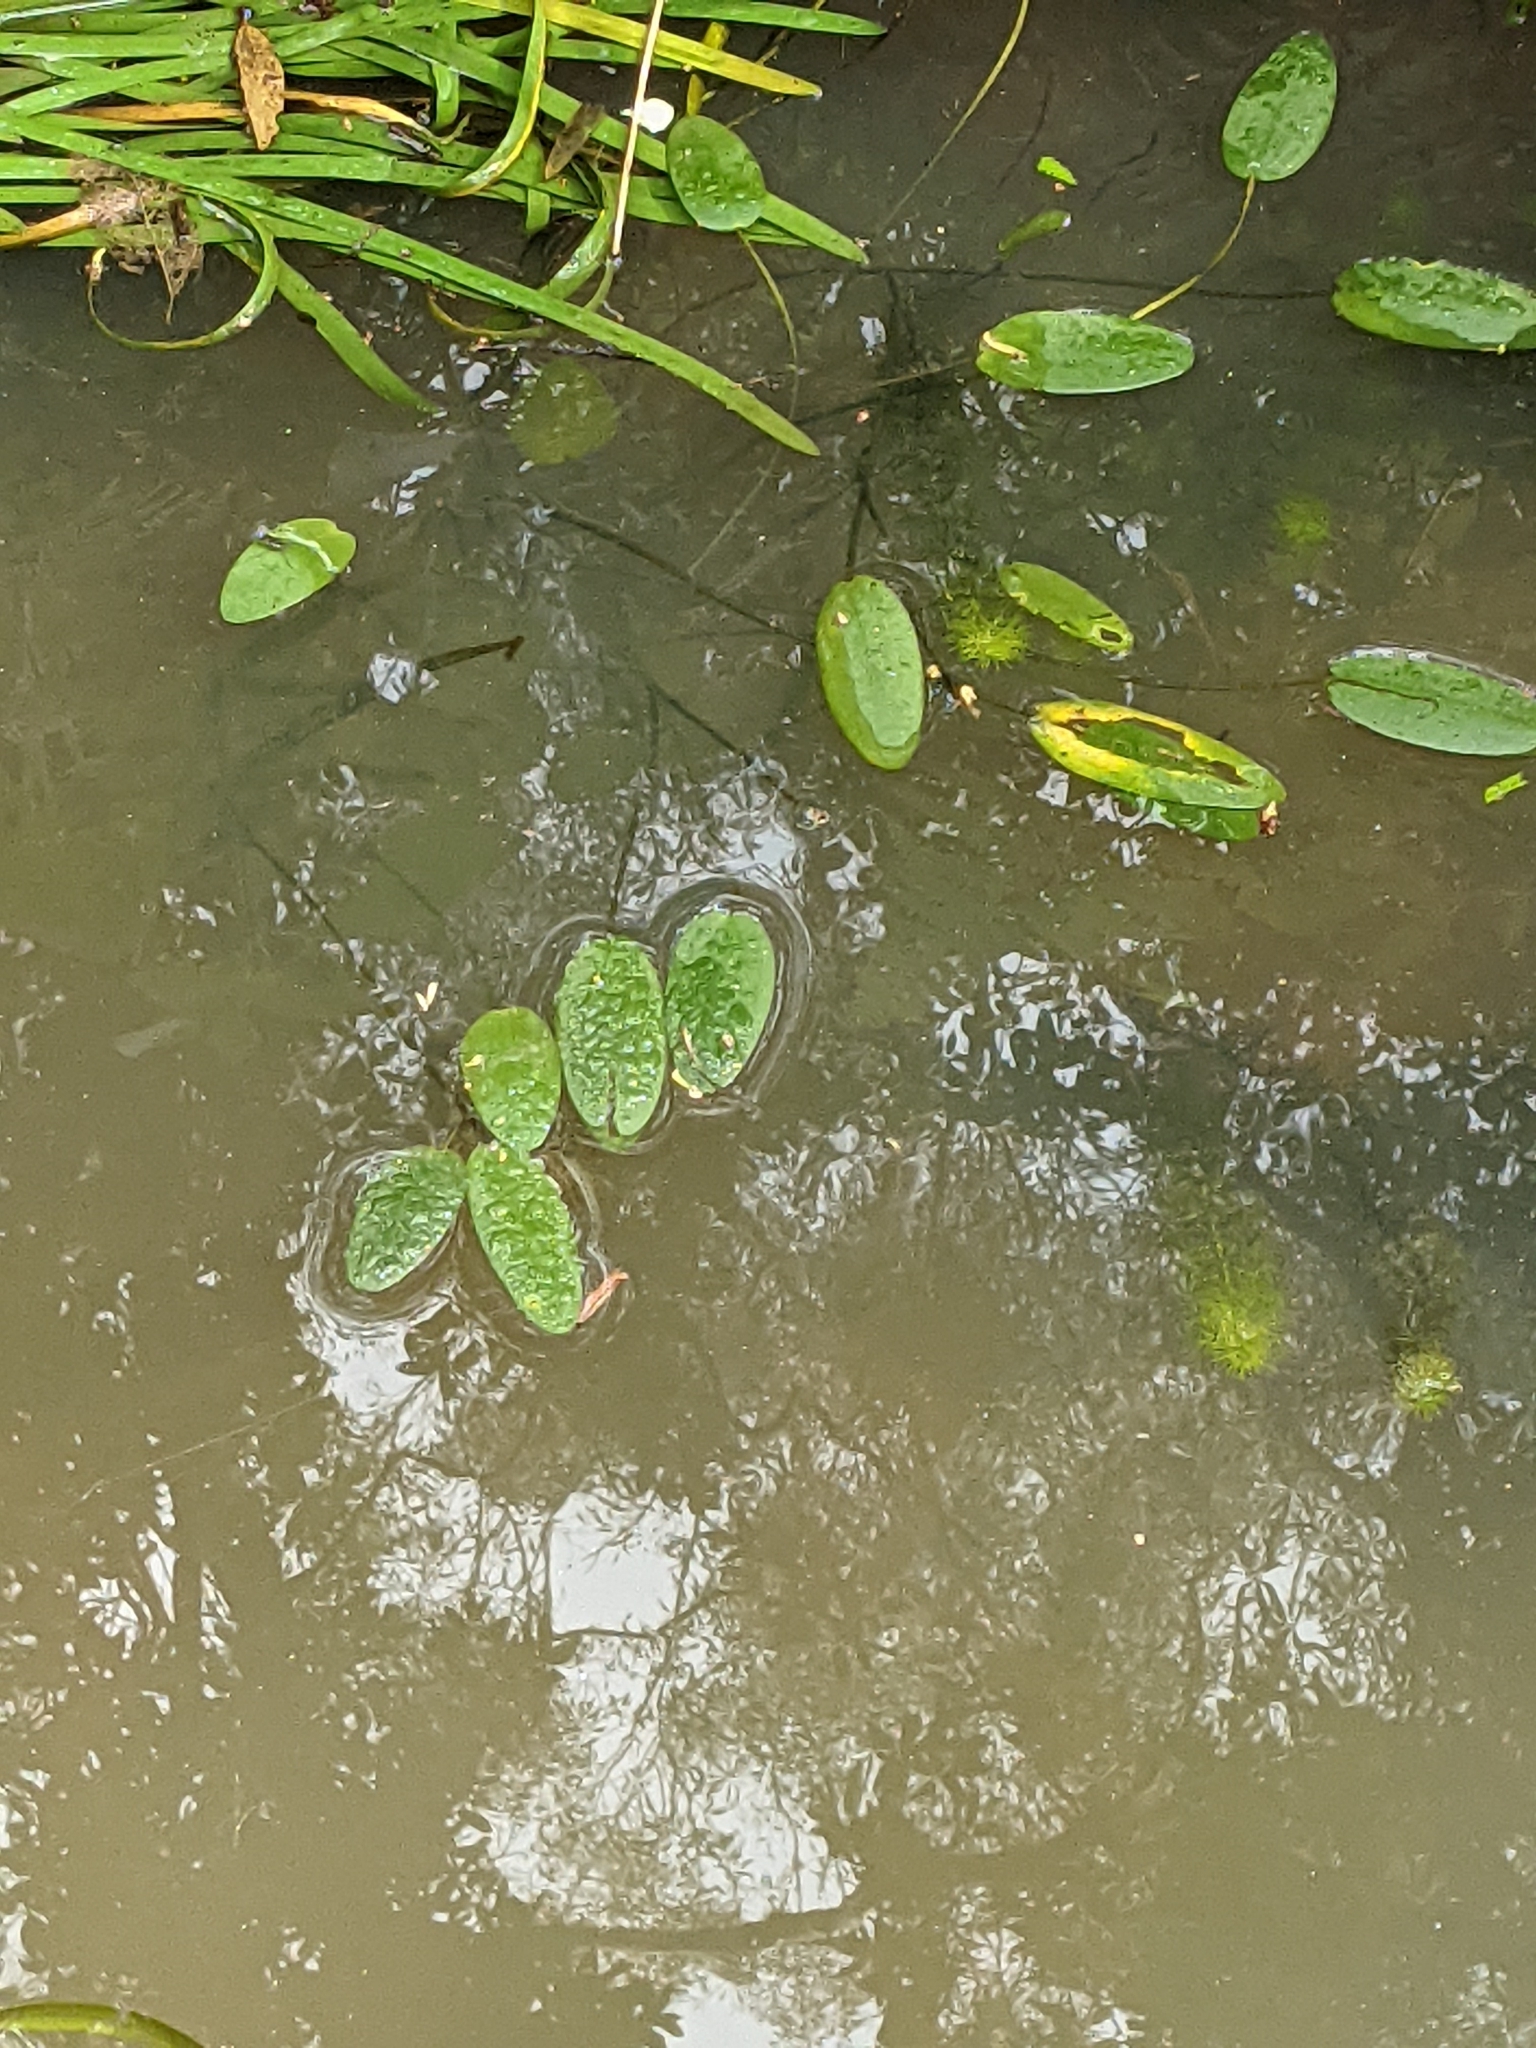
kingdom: Plantae
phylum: Tracheophyta
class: Liliopsida
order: Alismatales
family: Hydrocharitaceae
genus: Ottelia
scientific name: Ottelia ovalifolia
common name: Swamp-lily
